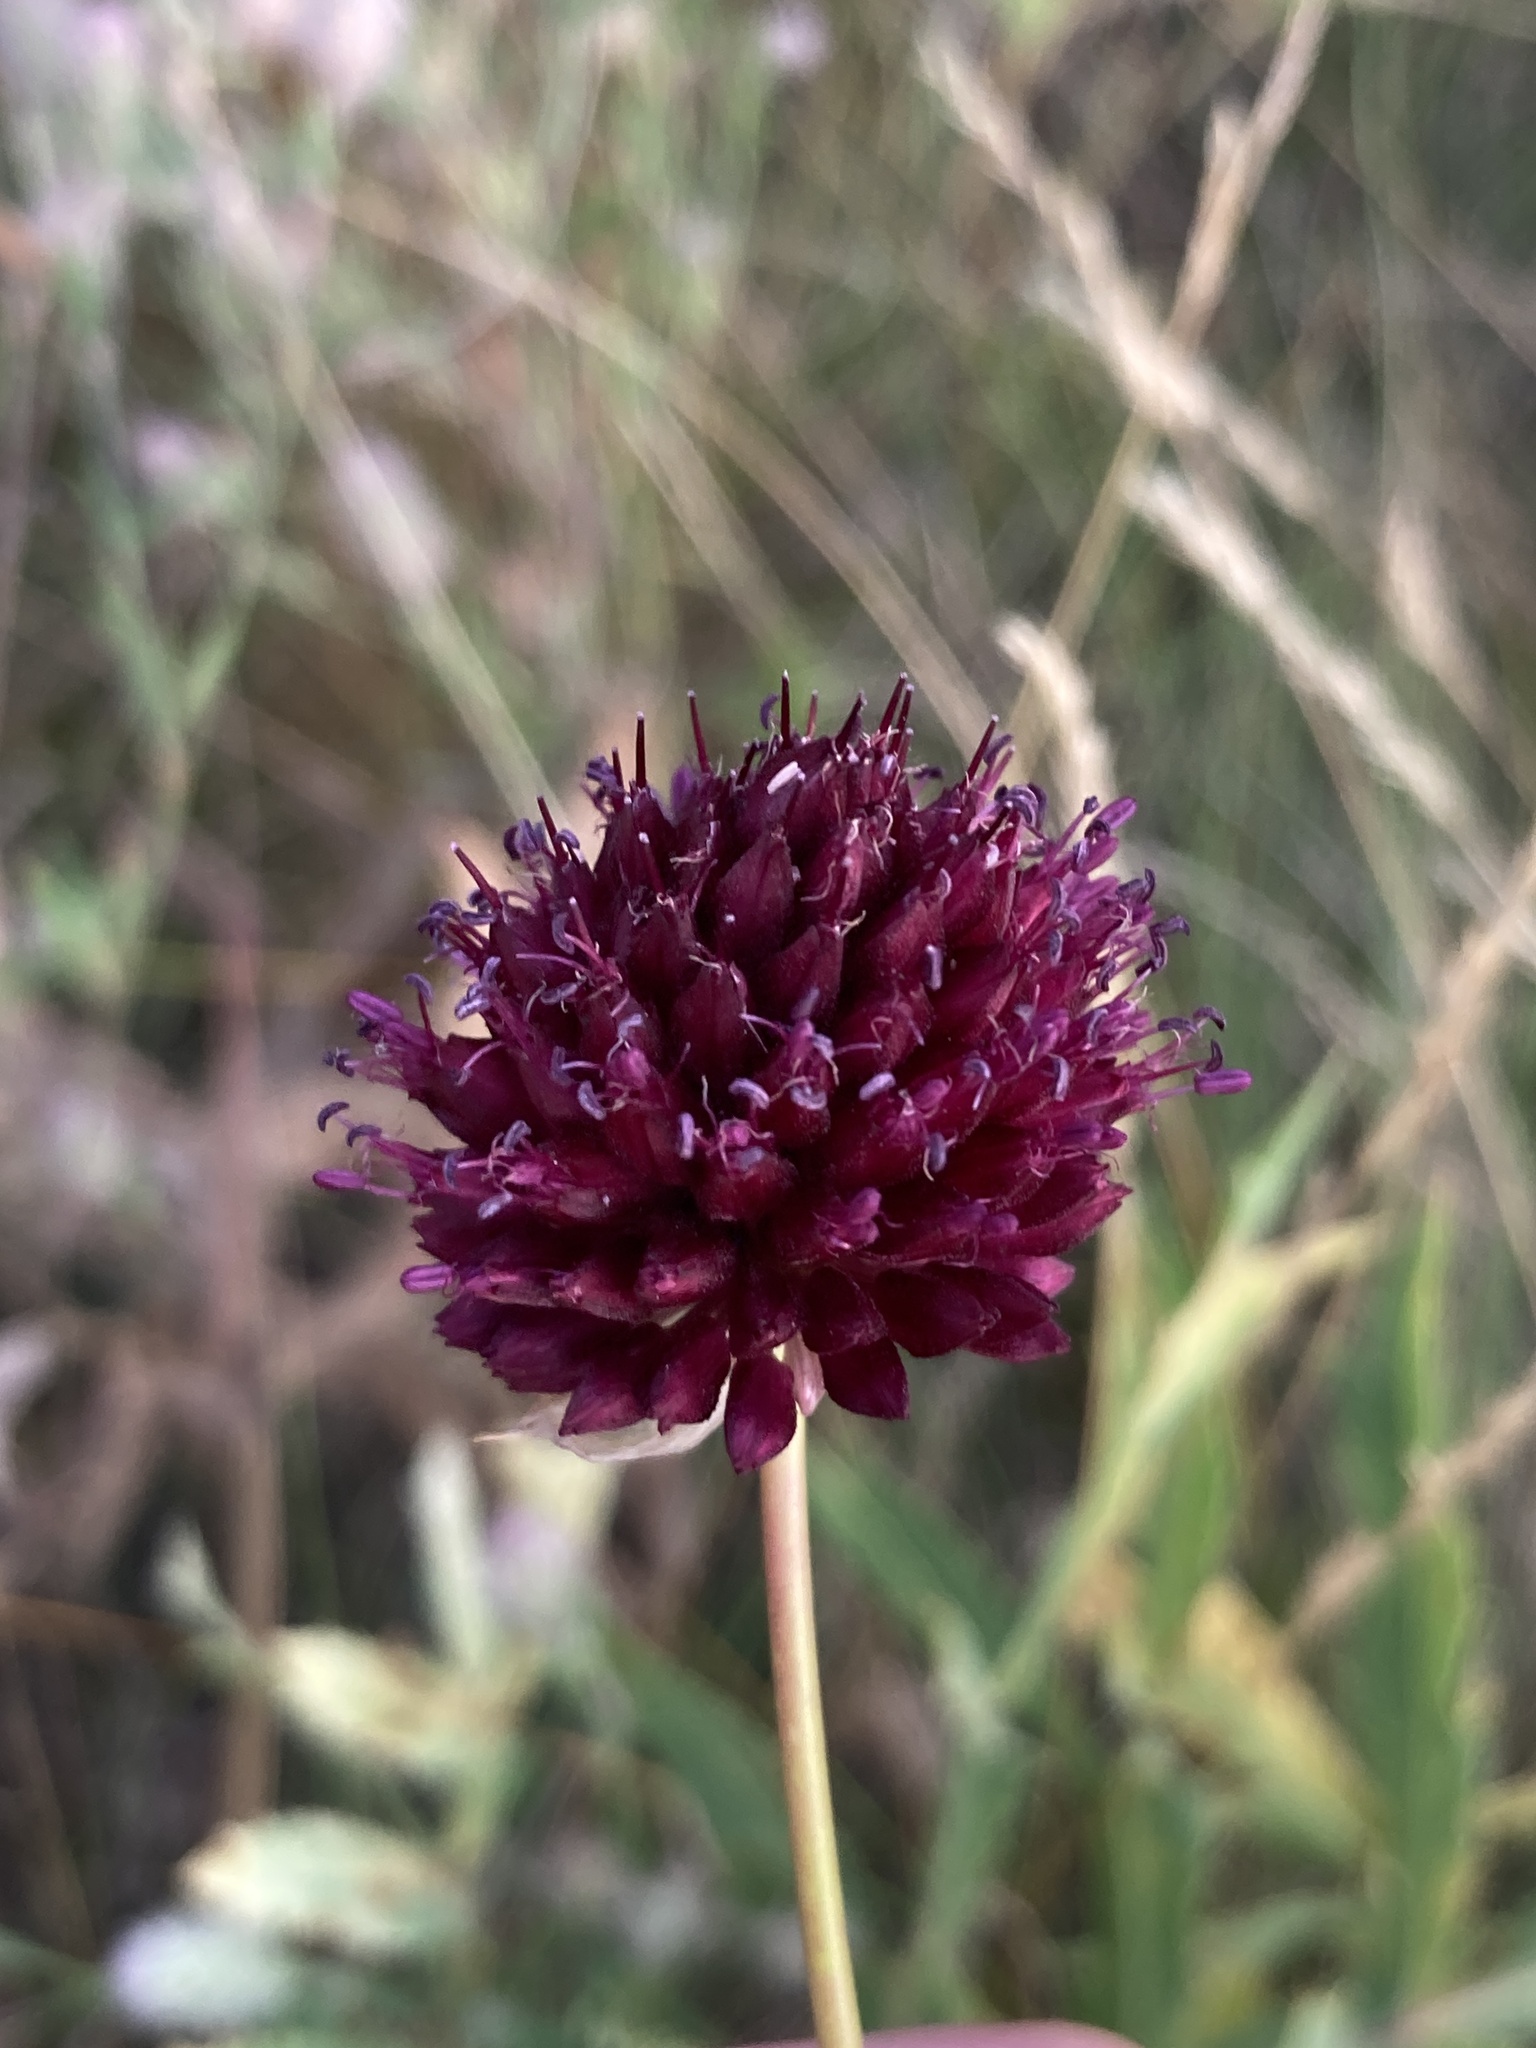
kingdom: Plantae
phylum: Tracheophyta
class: Liliopsida
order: Asparagales
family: Amaryllidaceae
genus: Allium
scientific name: Allium sphaerocephalon
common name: Round-headed leek
